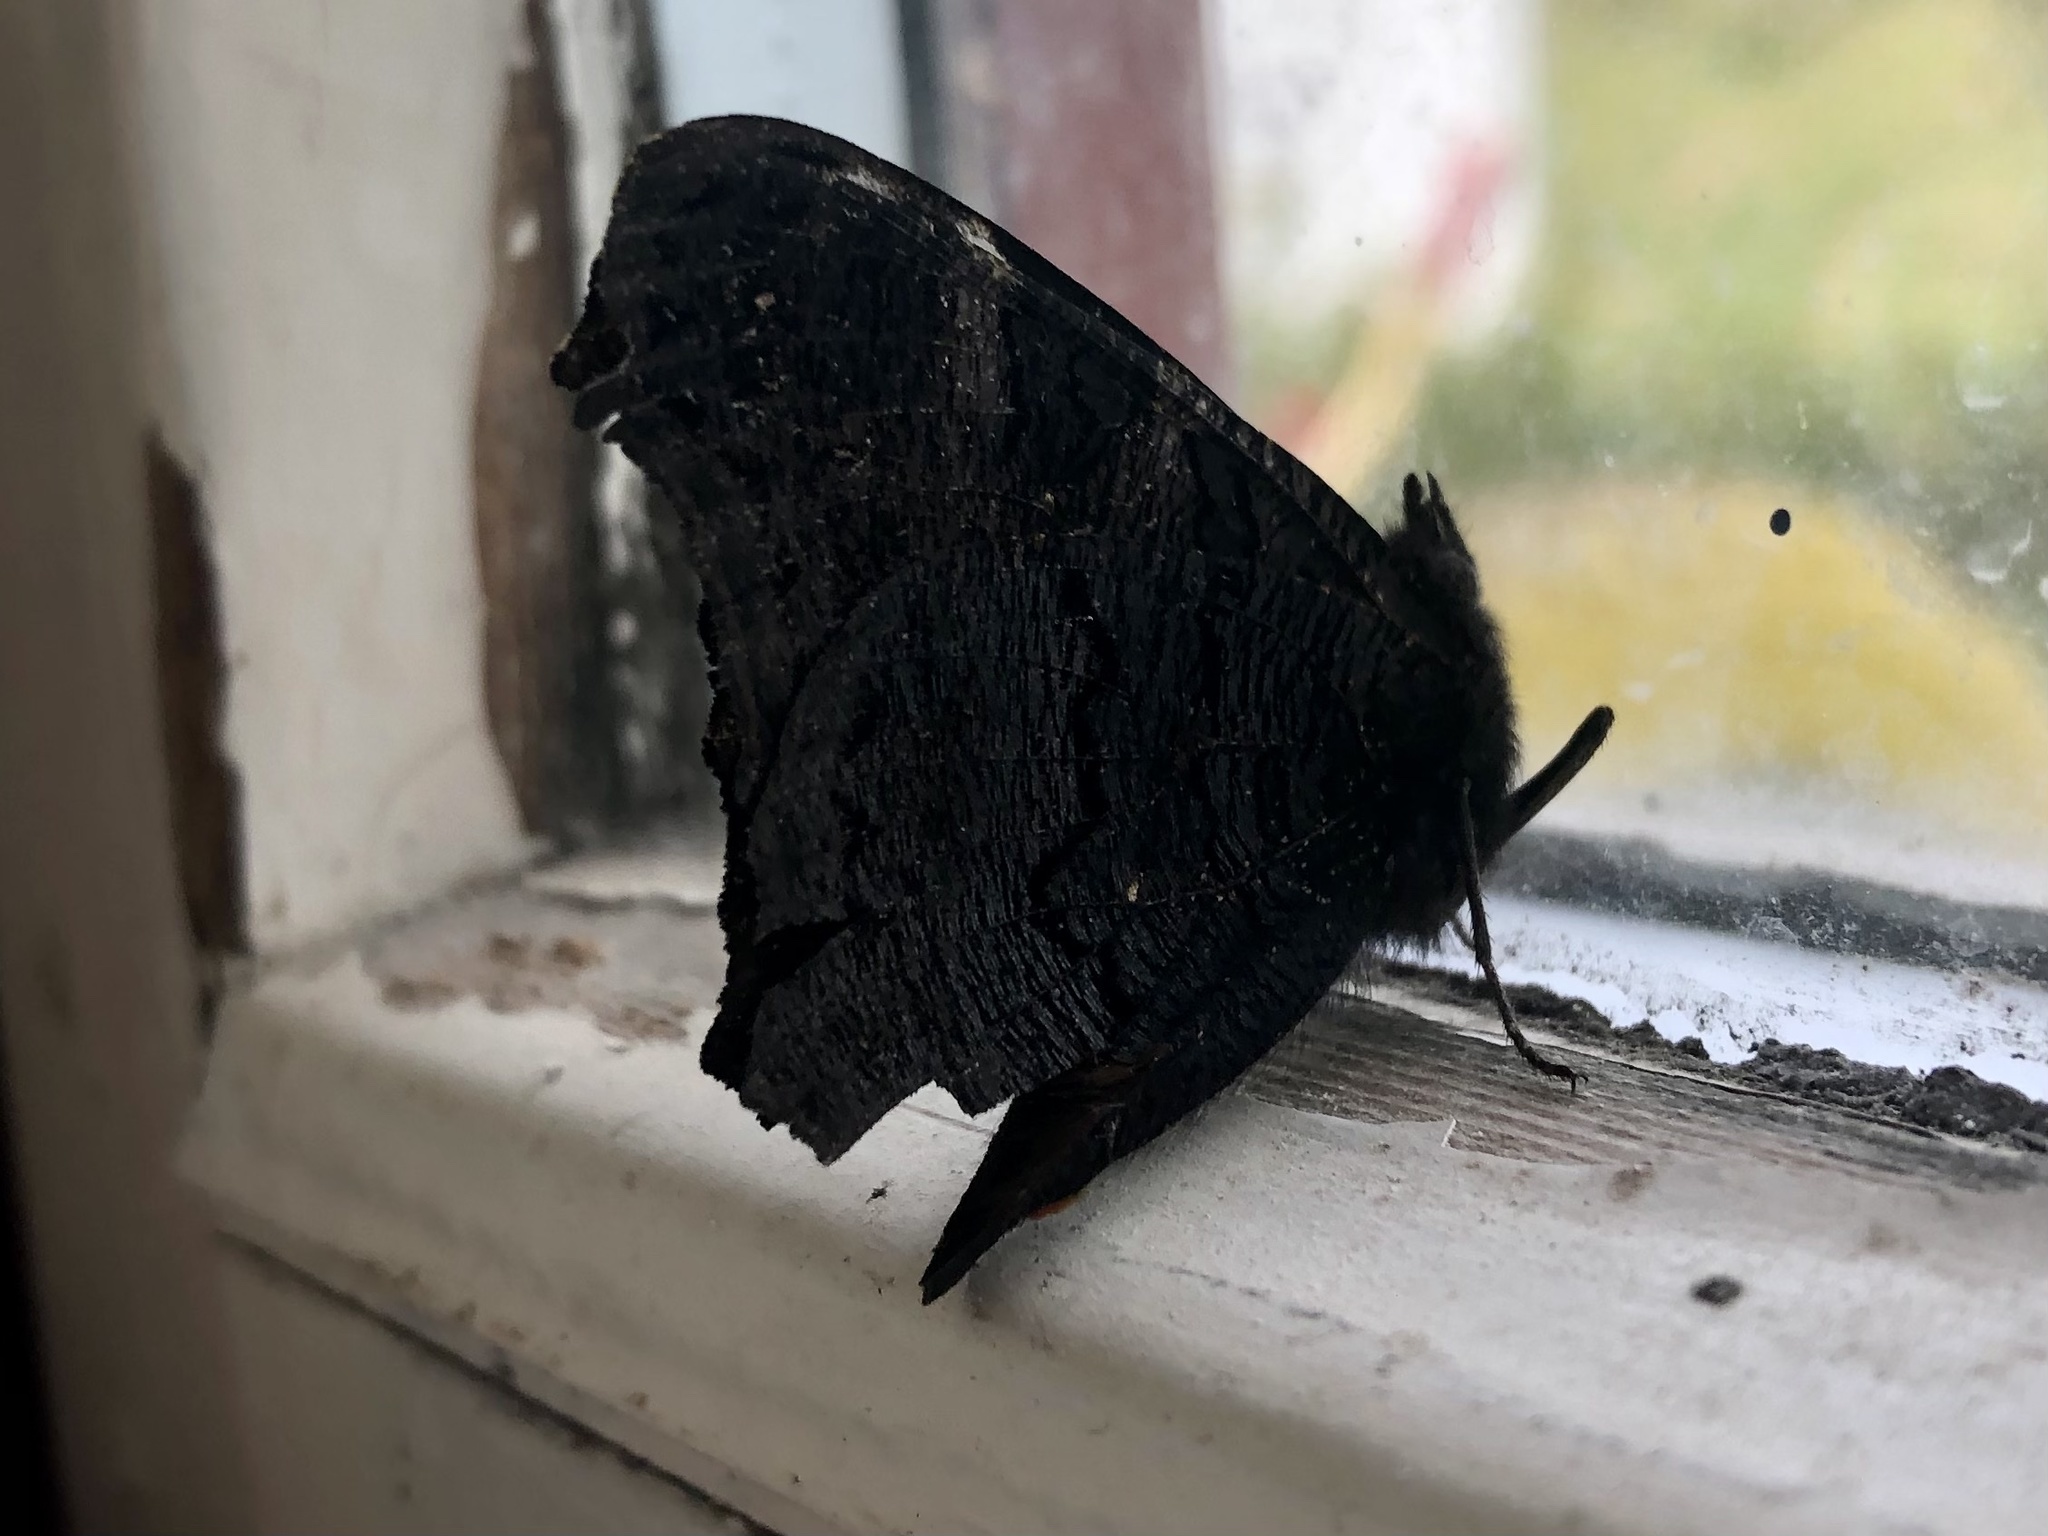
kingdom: Animalia
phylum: Arthropoda
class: Insecta
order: Lepidoptera
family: Nymphalidae
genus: Aglais
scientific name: Aglais io
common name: Peacock
